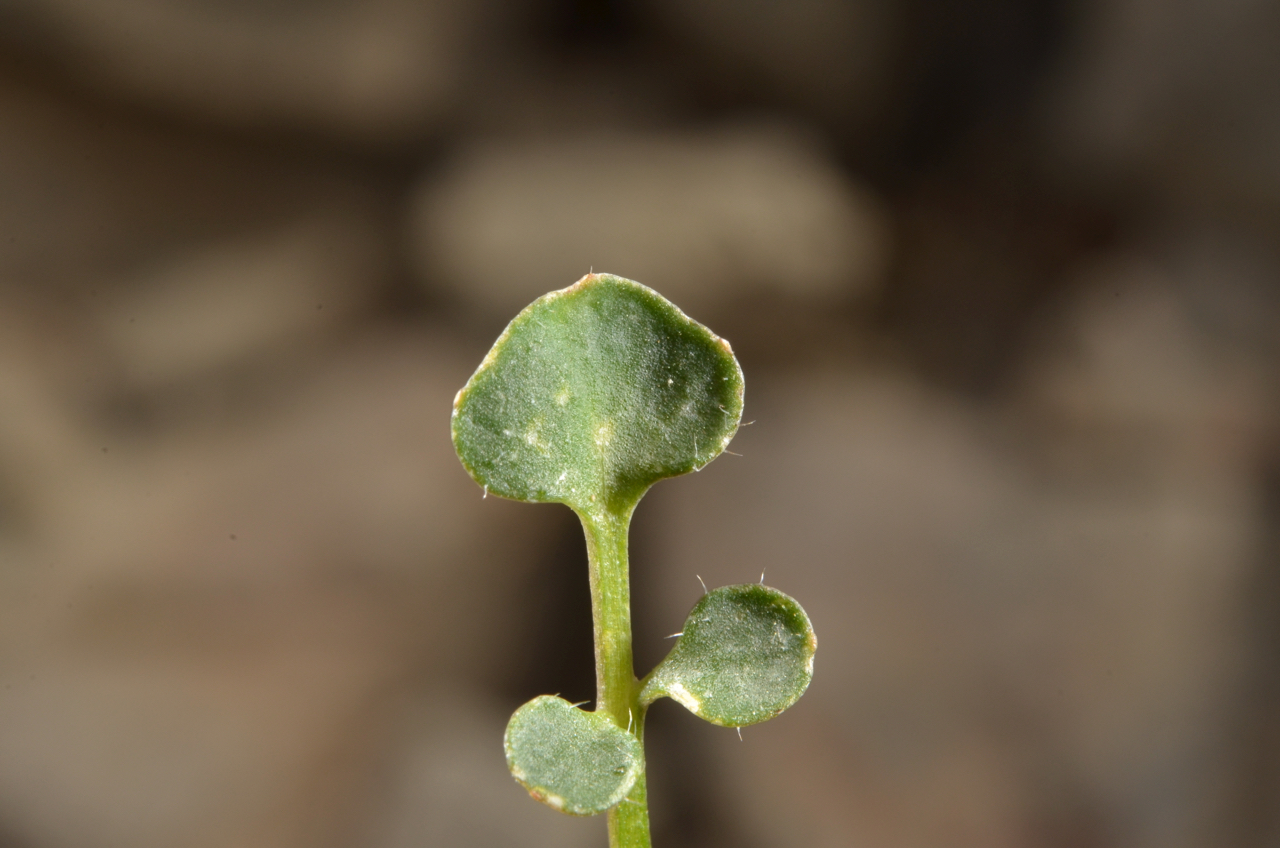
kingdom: Plantae
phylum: Tracheophyta
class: Magnoliopsida
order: Brassicales
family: Brassicaceae
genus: Cardamine
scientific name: Cardamine glara
